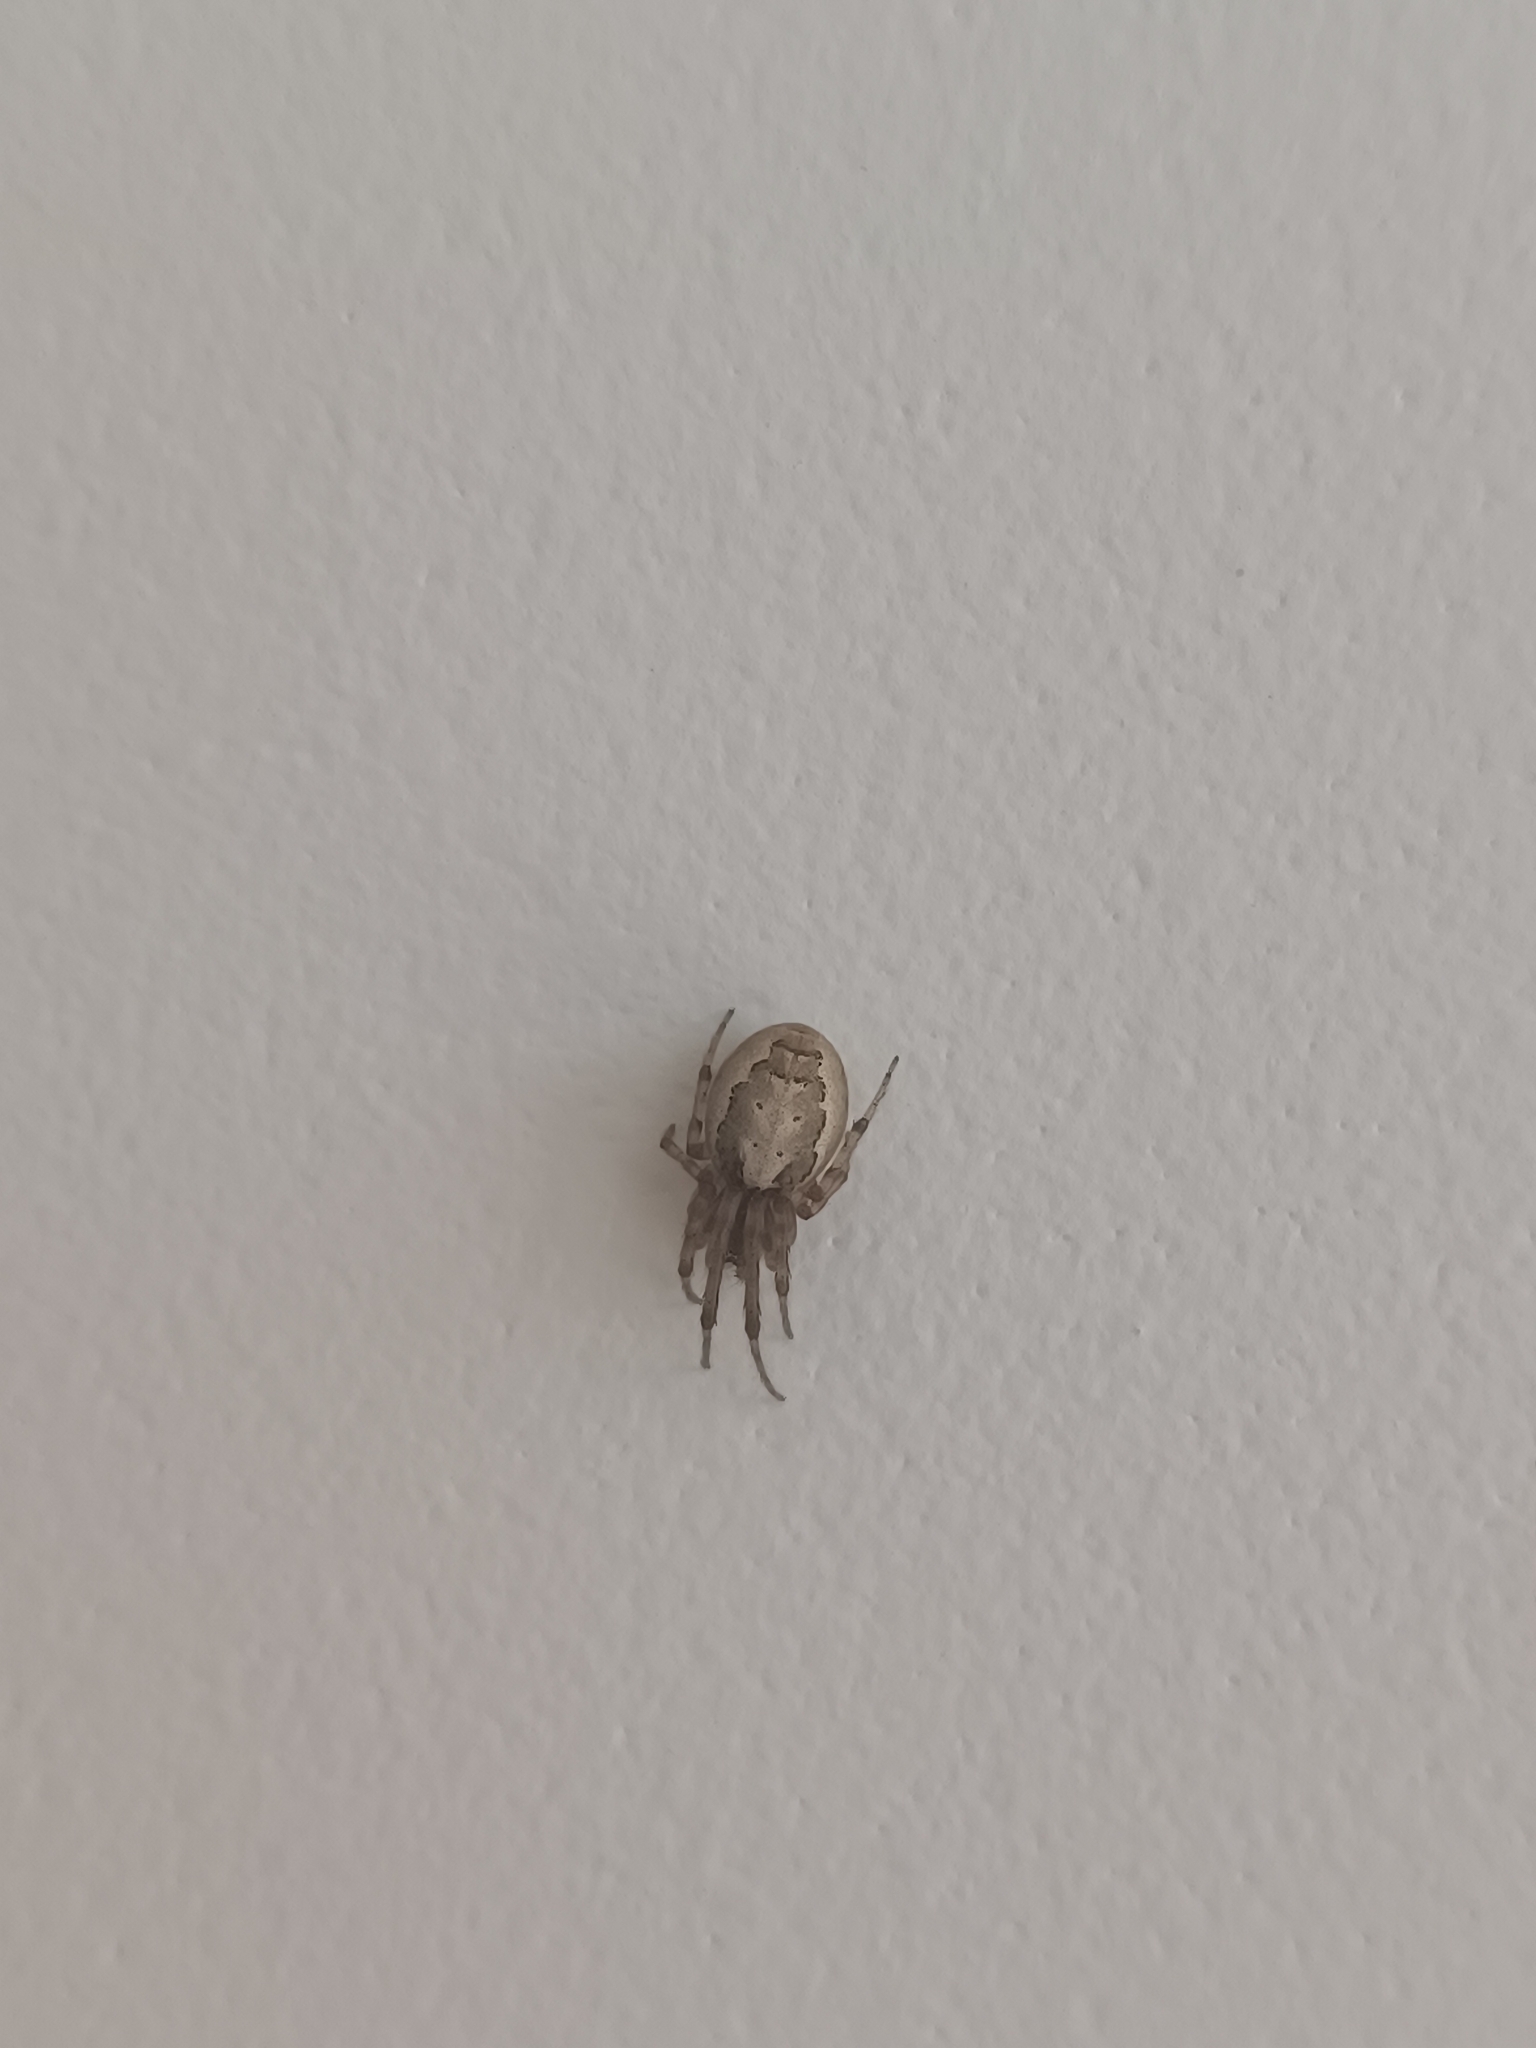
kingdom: Animalia
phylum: Arthropoda
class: Arachnida
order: Araneae
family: Araneidae
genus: Zygiella
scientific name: Zygiella x-notata
